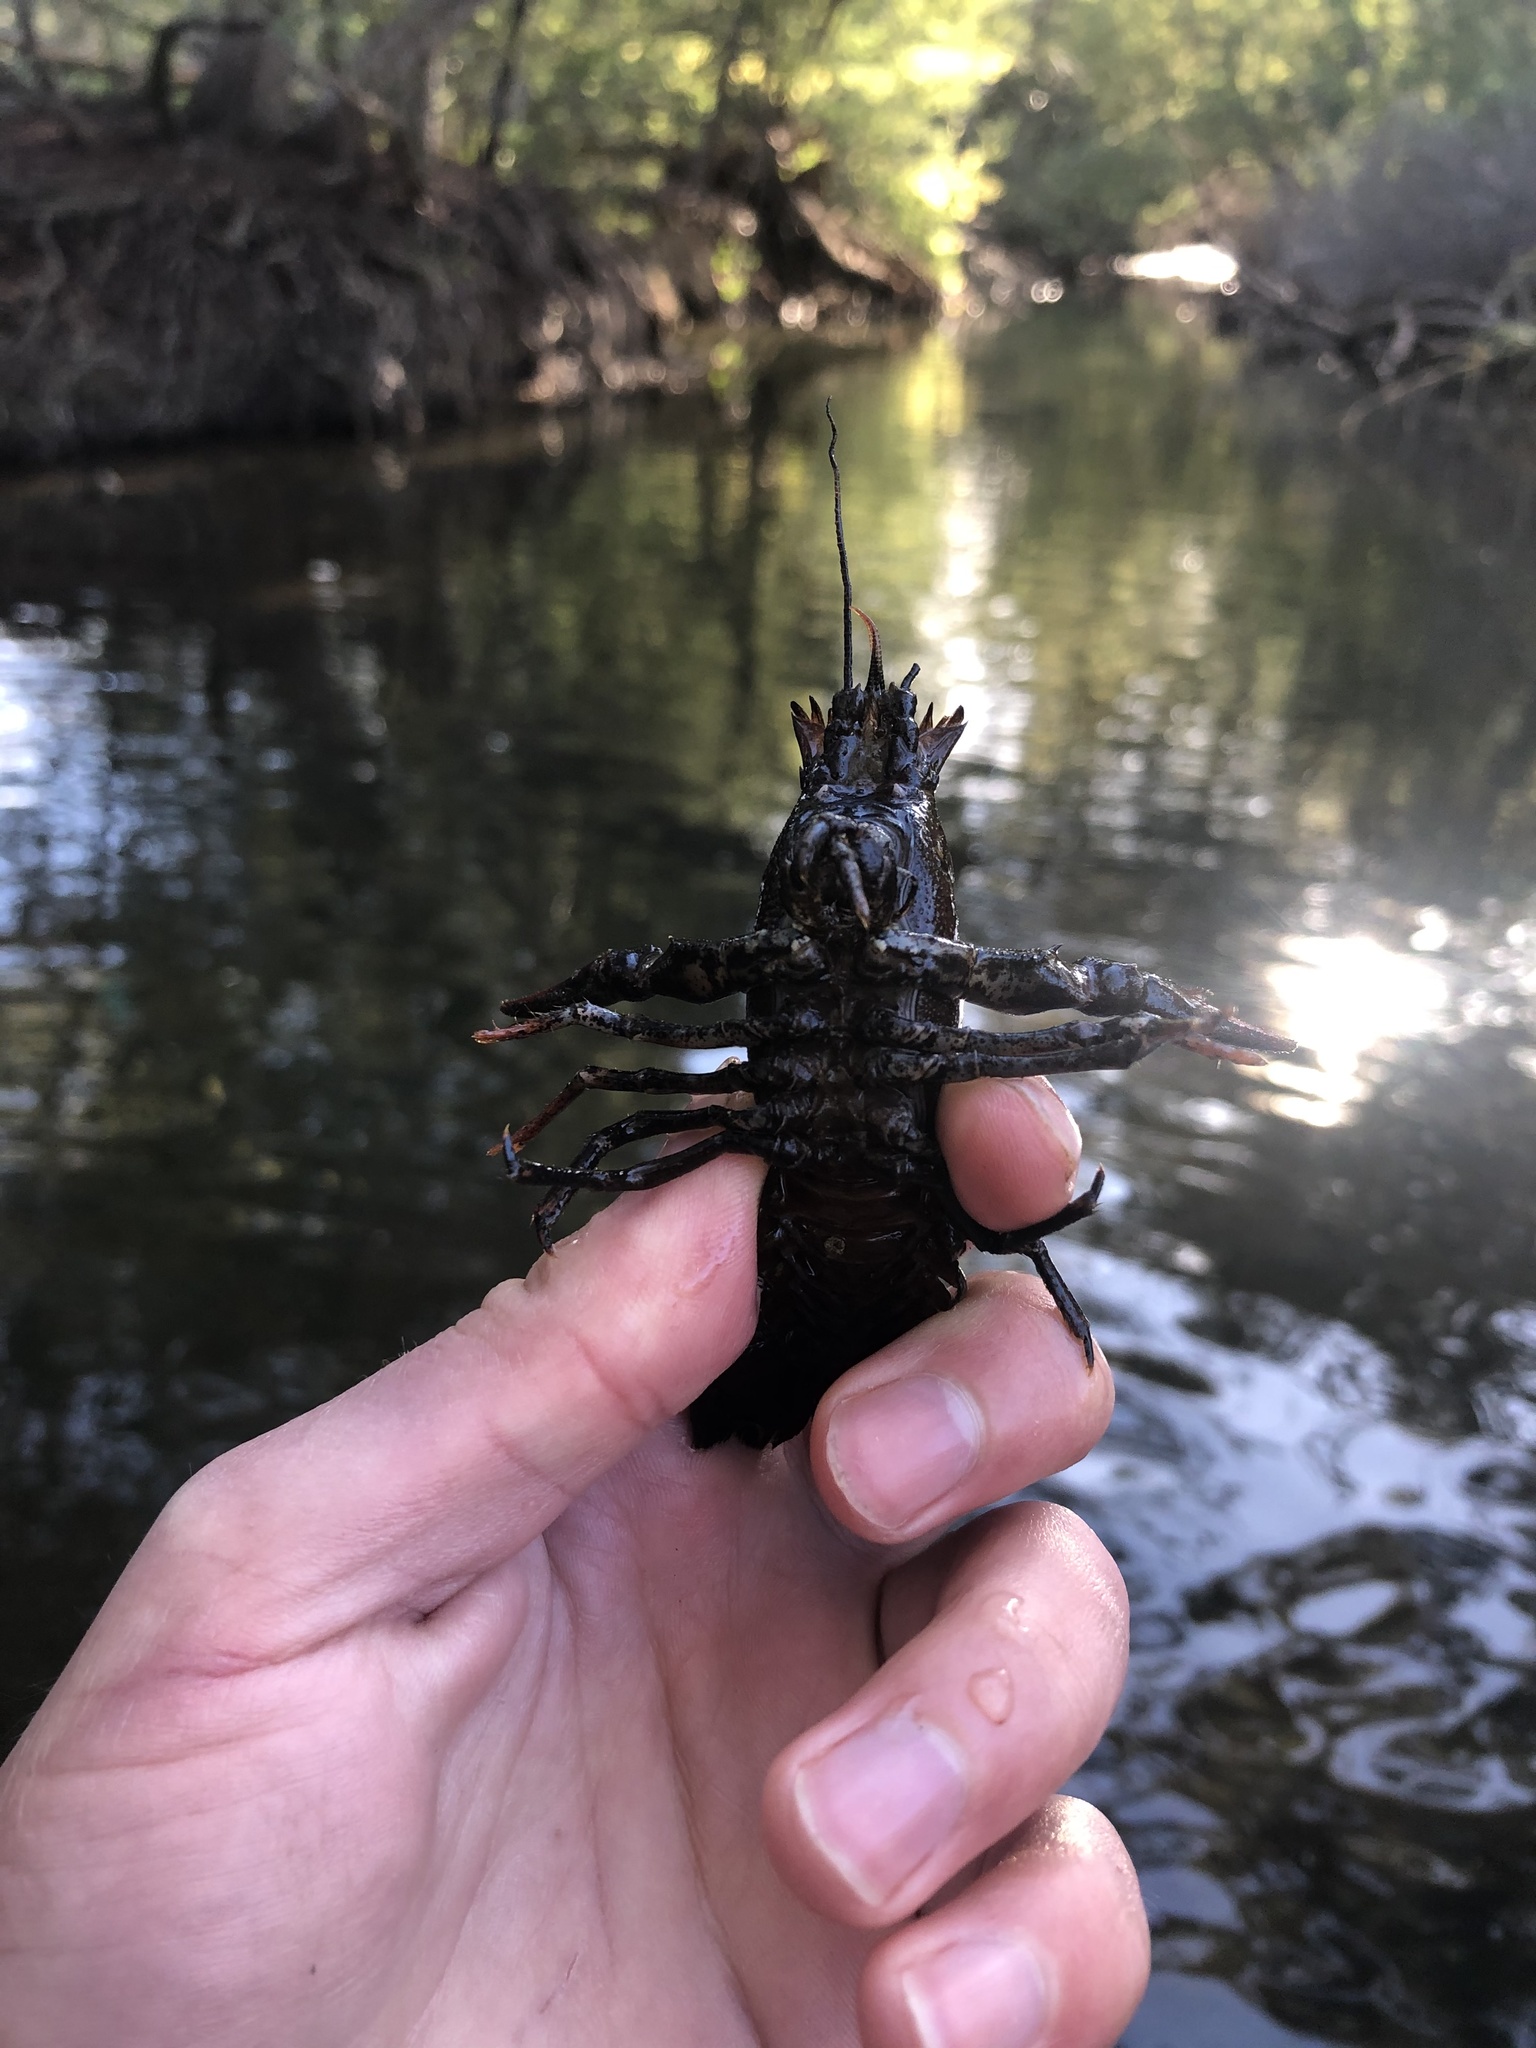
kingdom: Animalia
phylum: Arthropoda
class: Malacostraca
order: Decapoda
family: Astacidae
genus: Pacifastacus
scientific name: Pacifastacus leniusculus
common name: Signal crayfish
